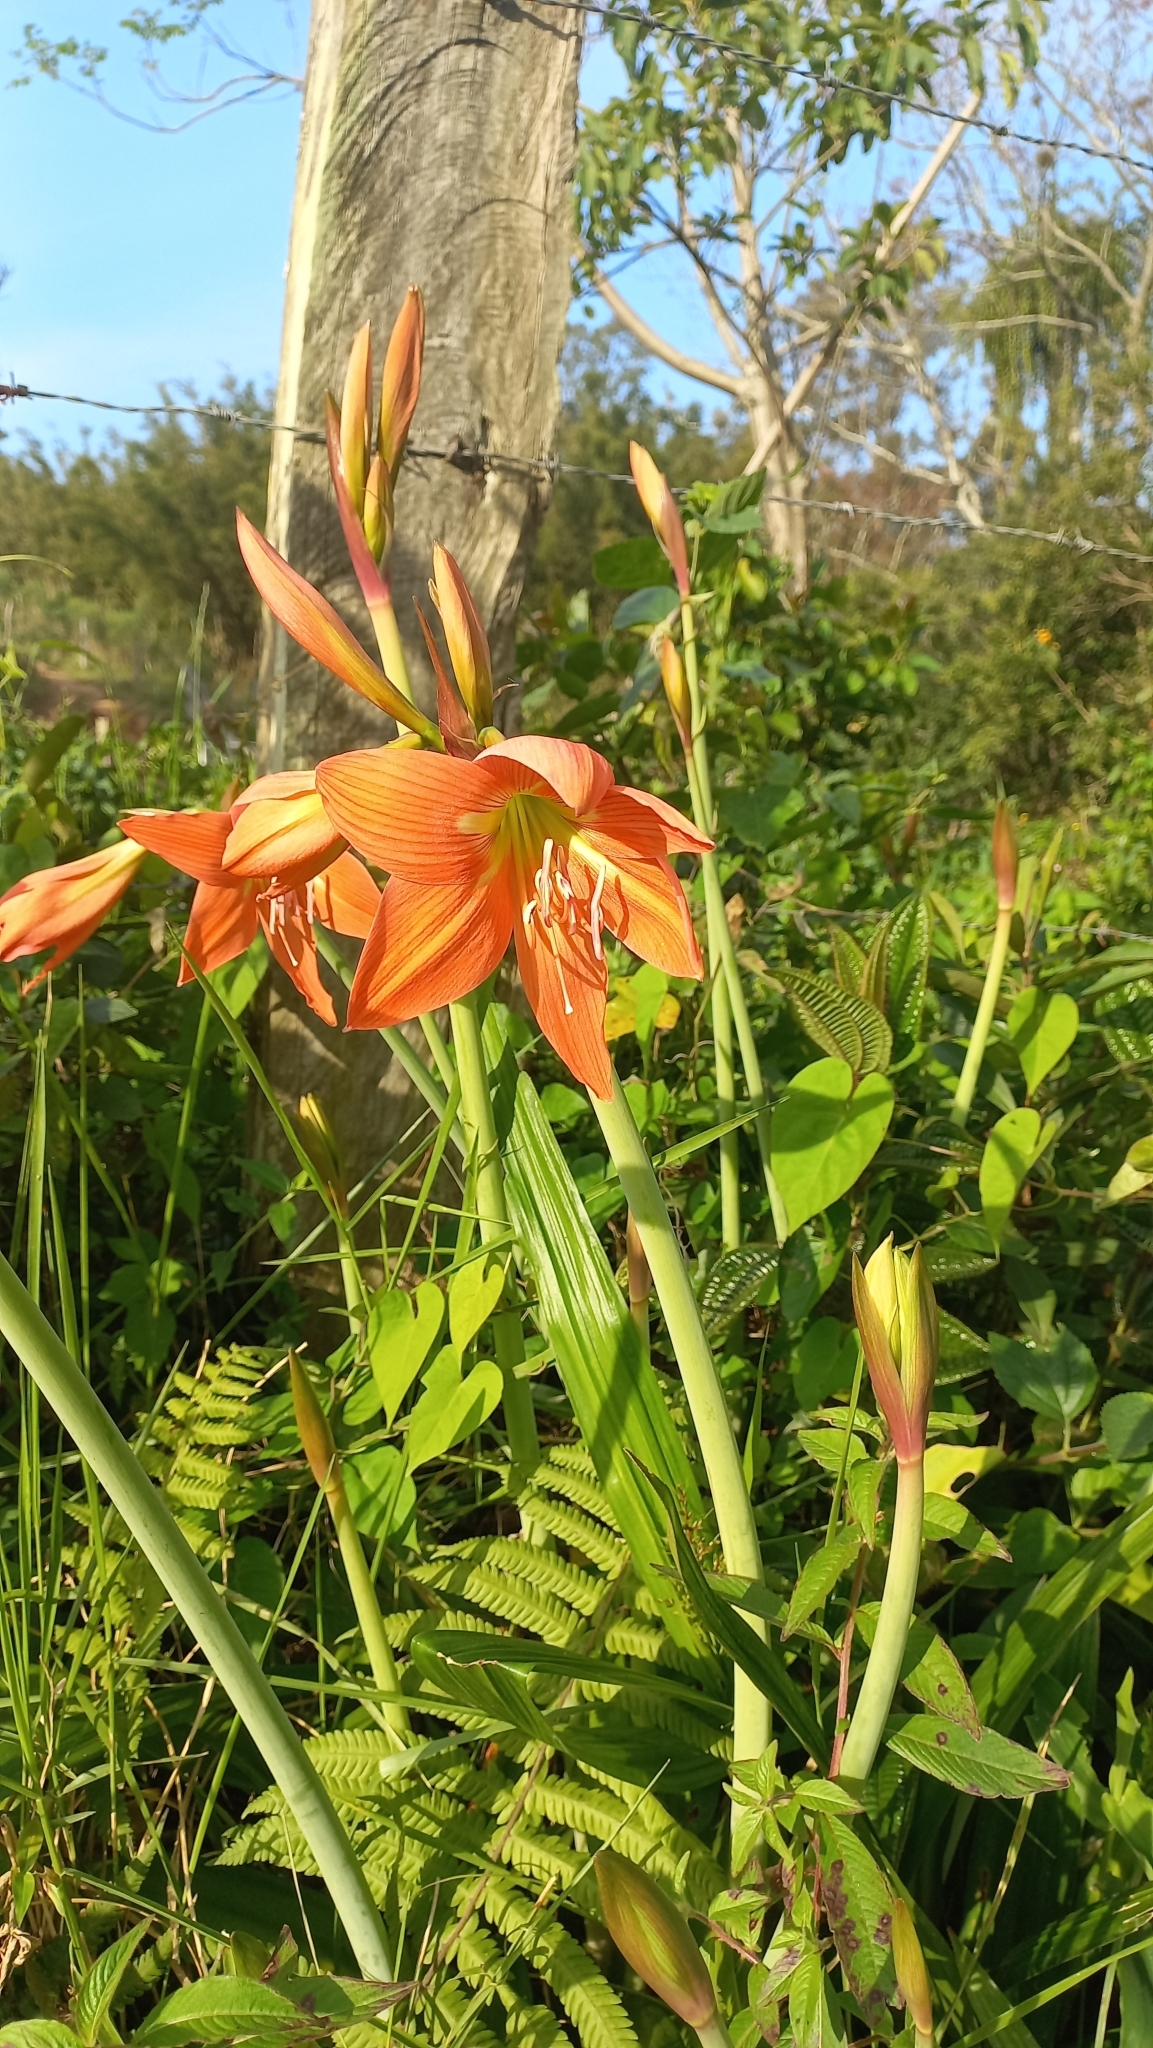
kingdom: Plantae
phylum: Tracheophyta
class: Liliopsida
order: Asparagales
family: Amaryllidaceae
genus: Hippeastrum
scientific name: Hippeastrum striatum
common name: Striped barbados lily
